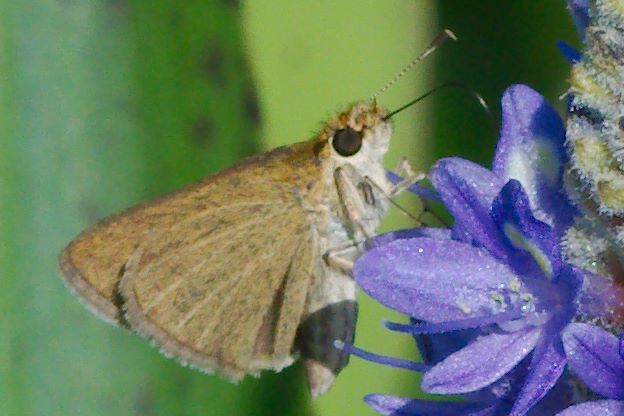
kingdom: Animalia
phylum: Arthropoda
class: Insecta
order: Lepidoptera
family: Hesperiidae
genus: Nastra
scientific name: Nastra lherminier
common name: Swarthy skipper
